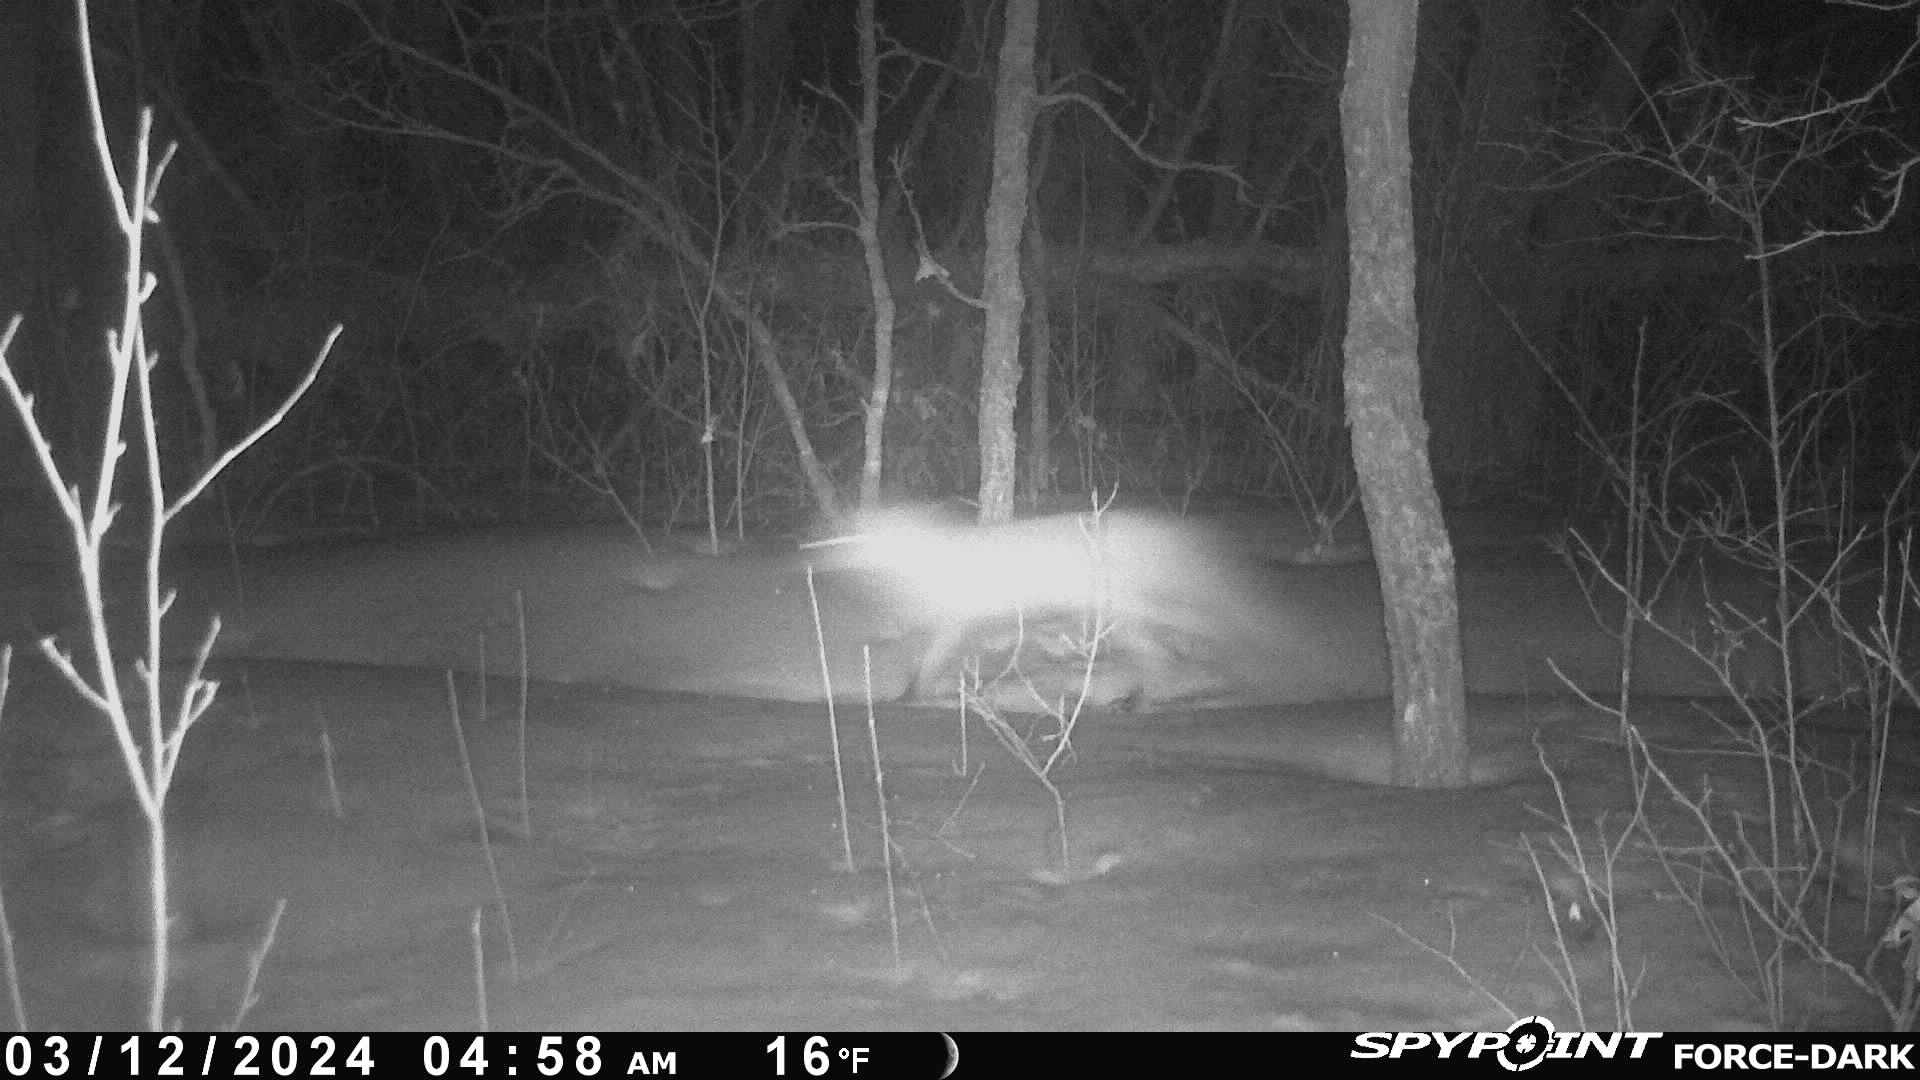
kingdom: Animalia
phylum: Chordata
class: Mammalia
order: Carnivora
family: Canidae
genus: Vulpes
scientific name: Vulpes vulpes
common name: Red fox
